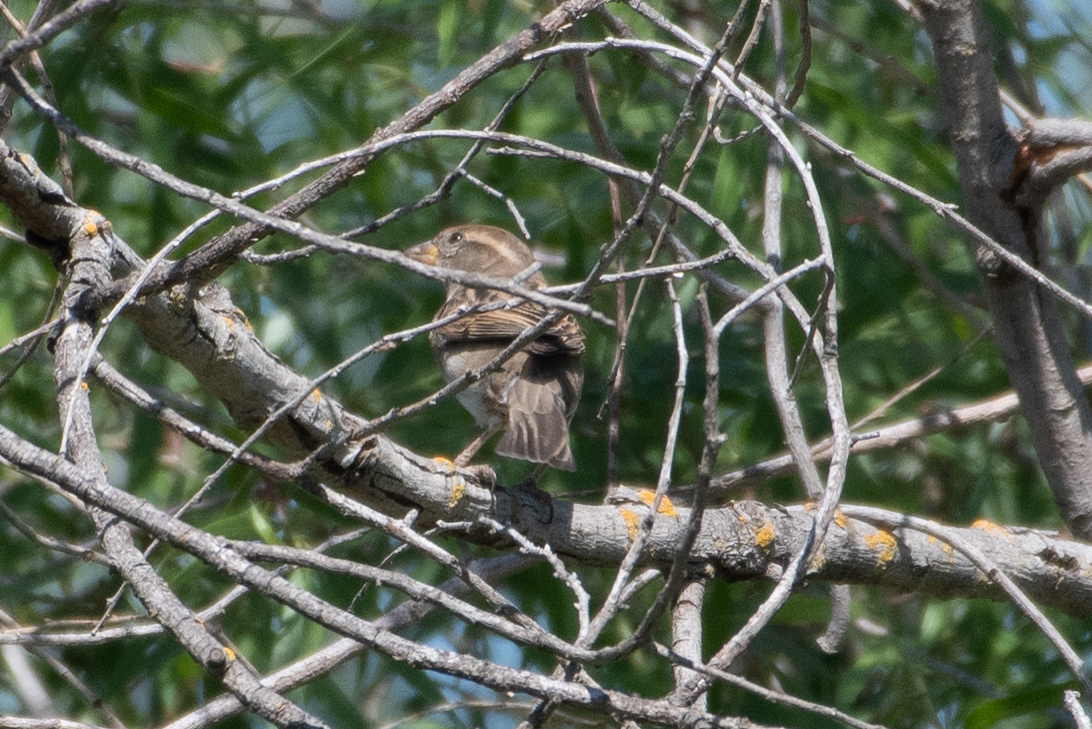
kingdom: Animalia
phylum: Chordata
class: Aves
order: Passeriformes
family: Passeridae
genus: Passer
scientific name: Passer domesticus
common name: House sparrow
